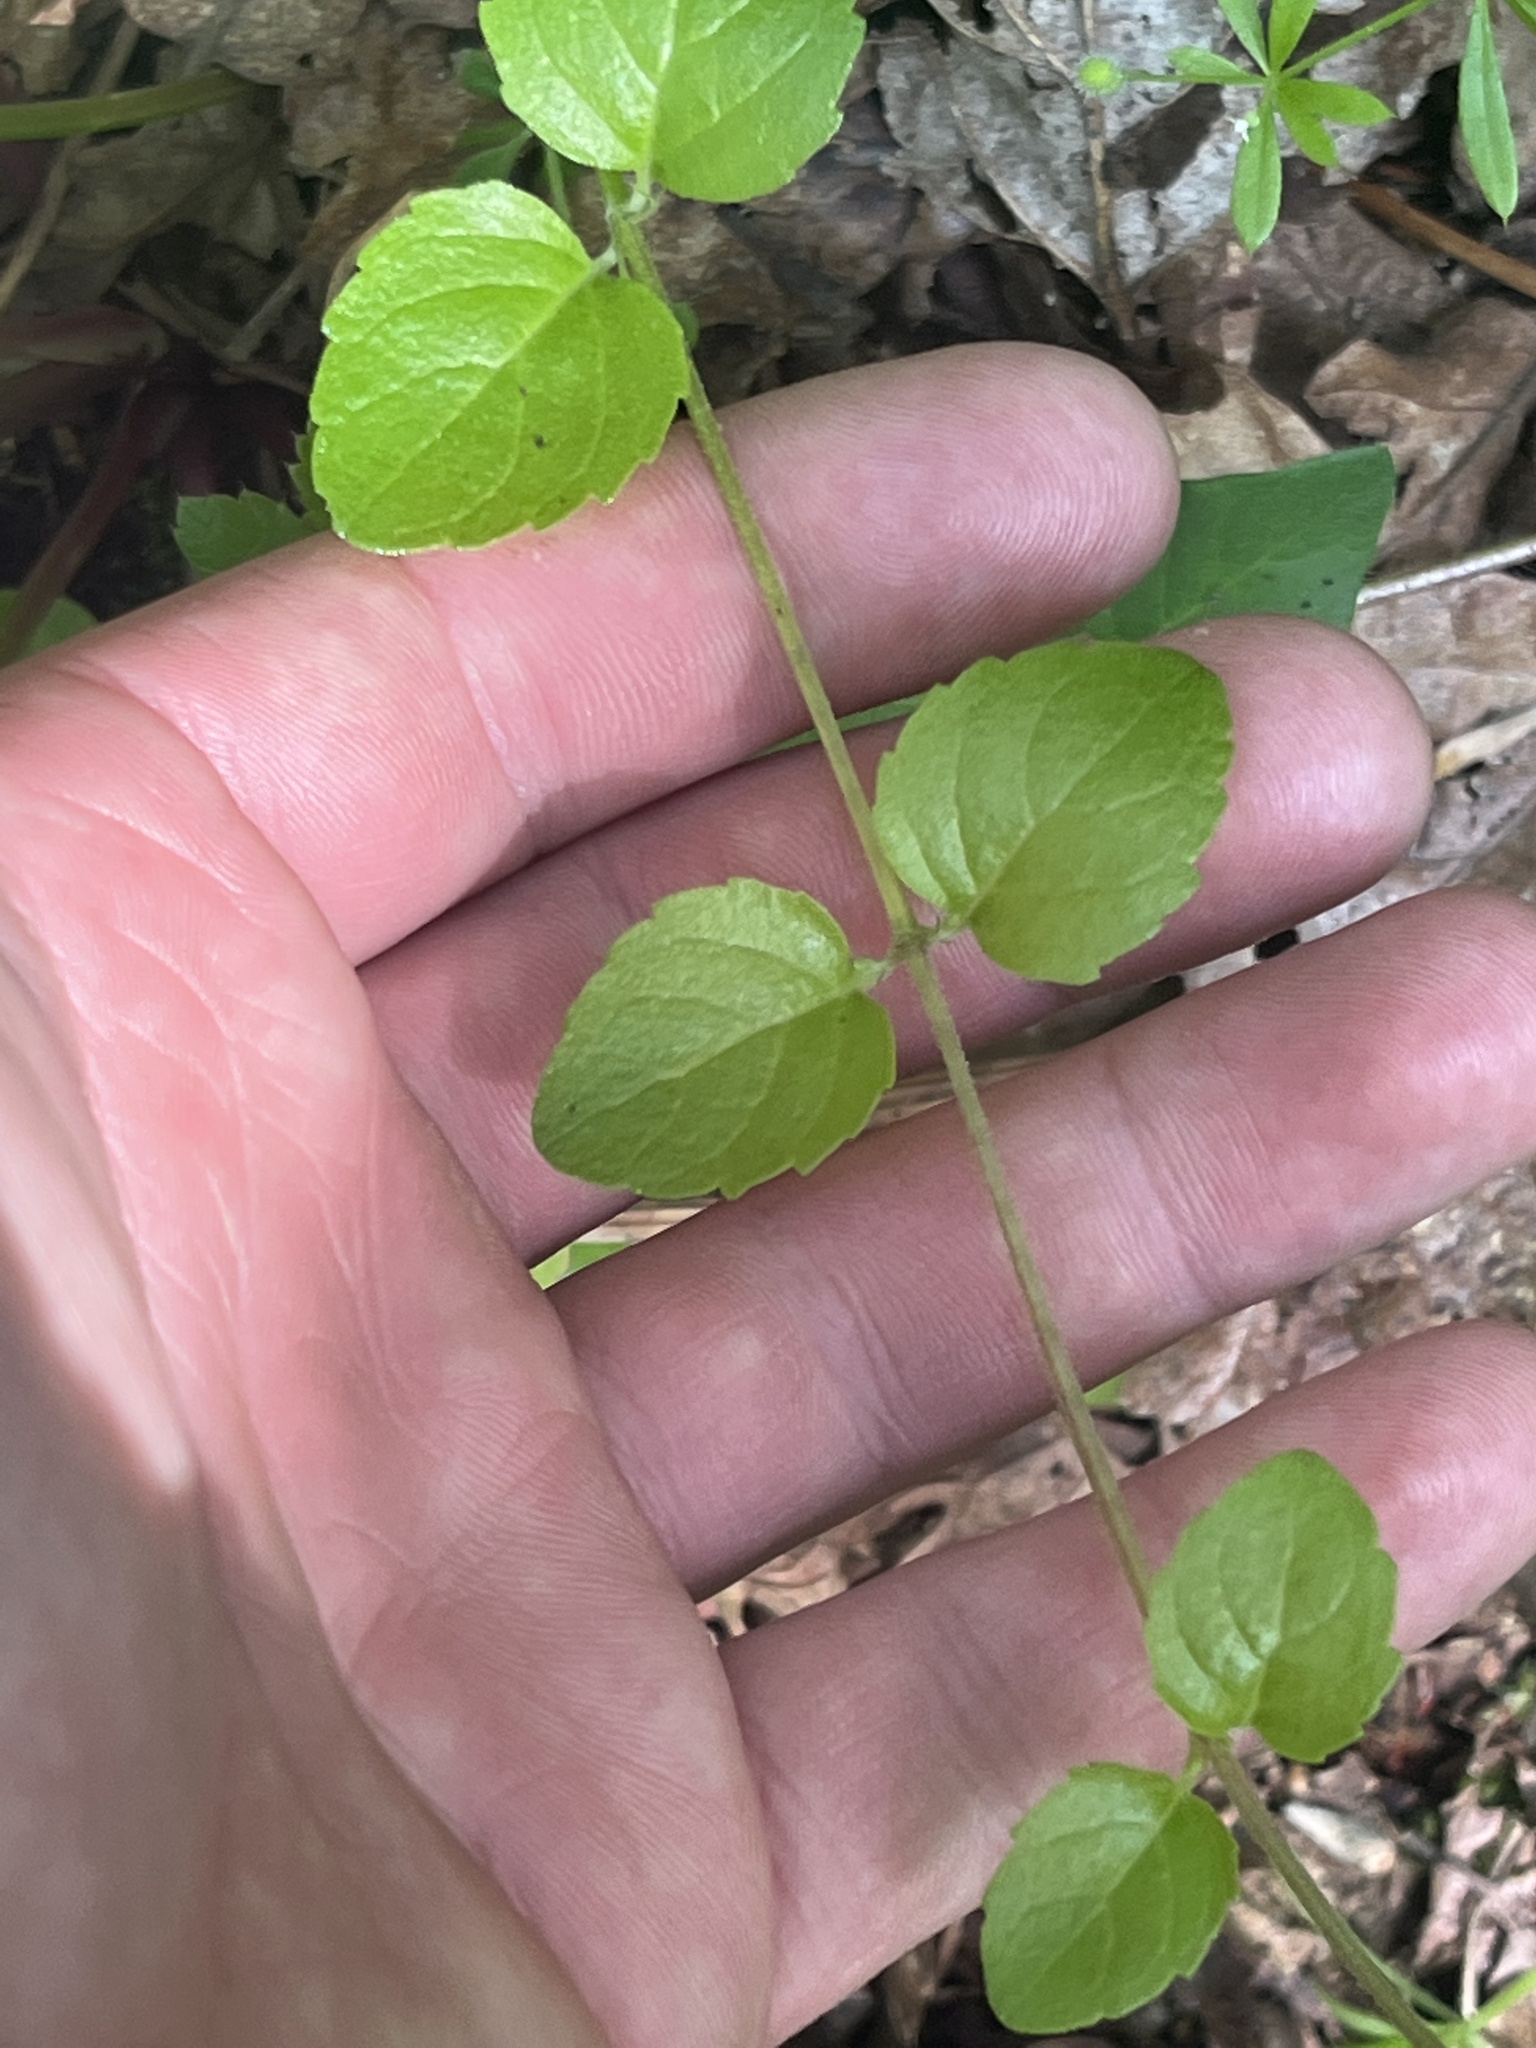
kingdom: Plantae
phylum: Tracheophyta
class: Magnoliopsida
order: Lamiales
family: Lamiaceae
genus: Micromeria
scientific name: Micromeria douglasii
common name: Yerba buena
